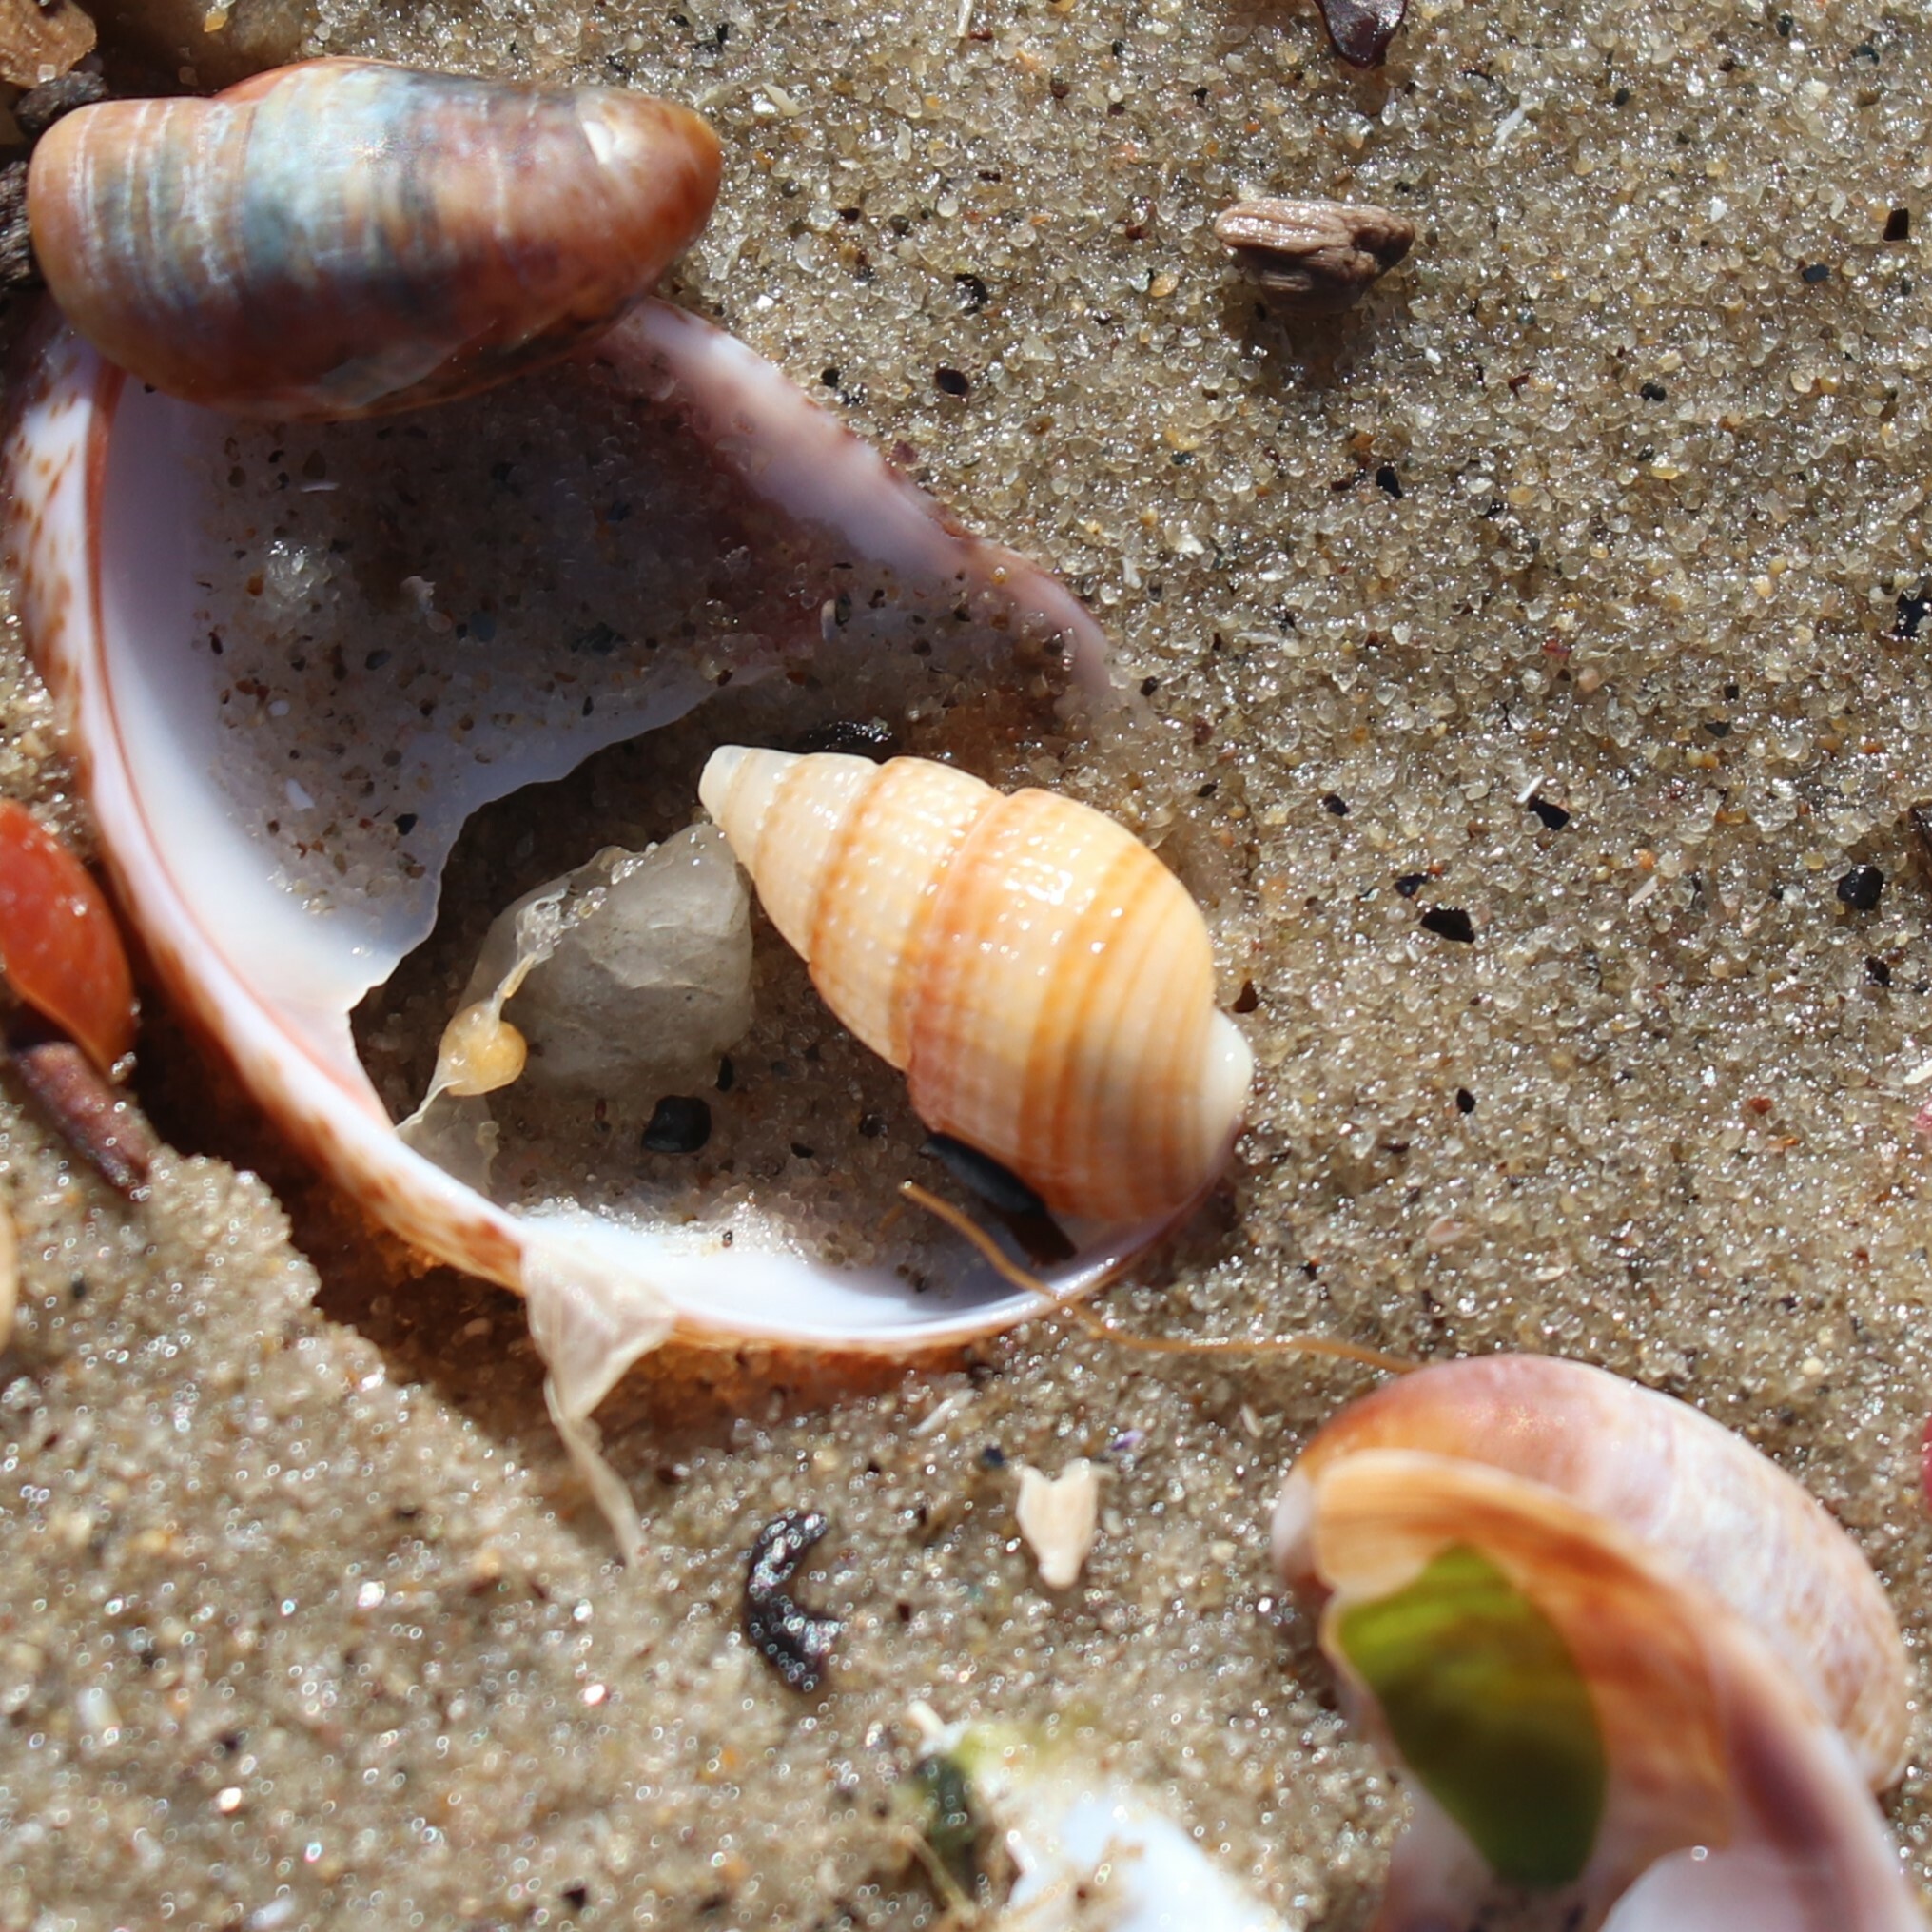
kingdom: Animalia
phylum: Mollusca
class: Gastropoda
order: Neogastropoda
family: Nassariidae
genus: Ilyanassa
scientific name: Ilyanassa trivittata
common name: Three-line mudsnail
